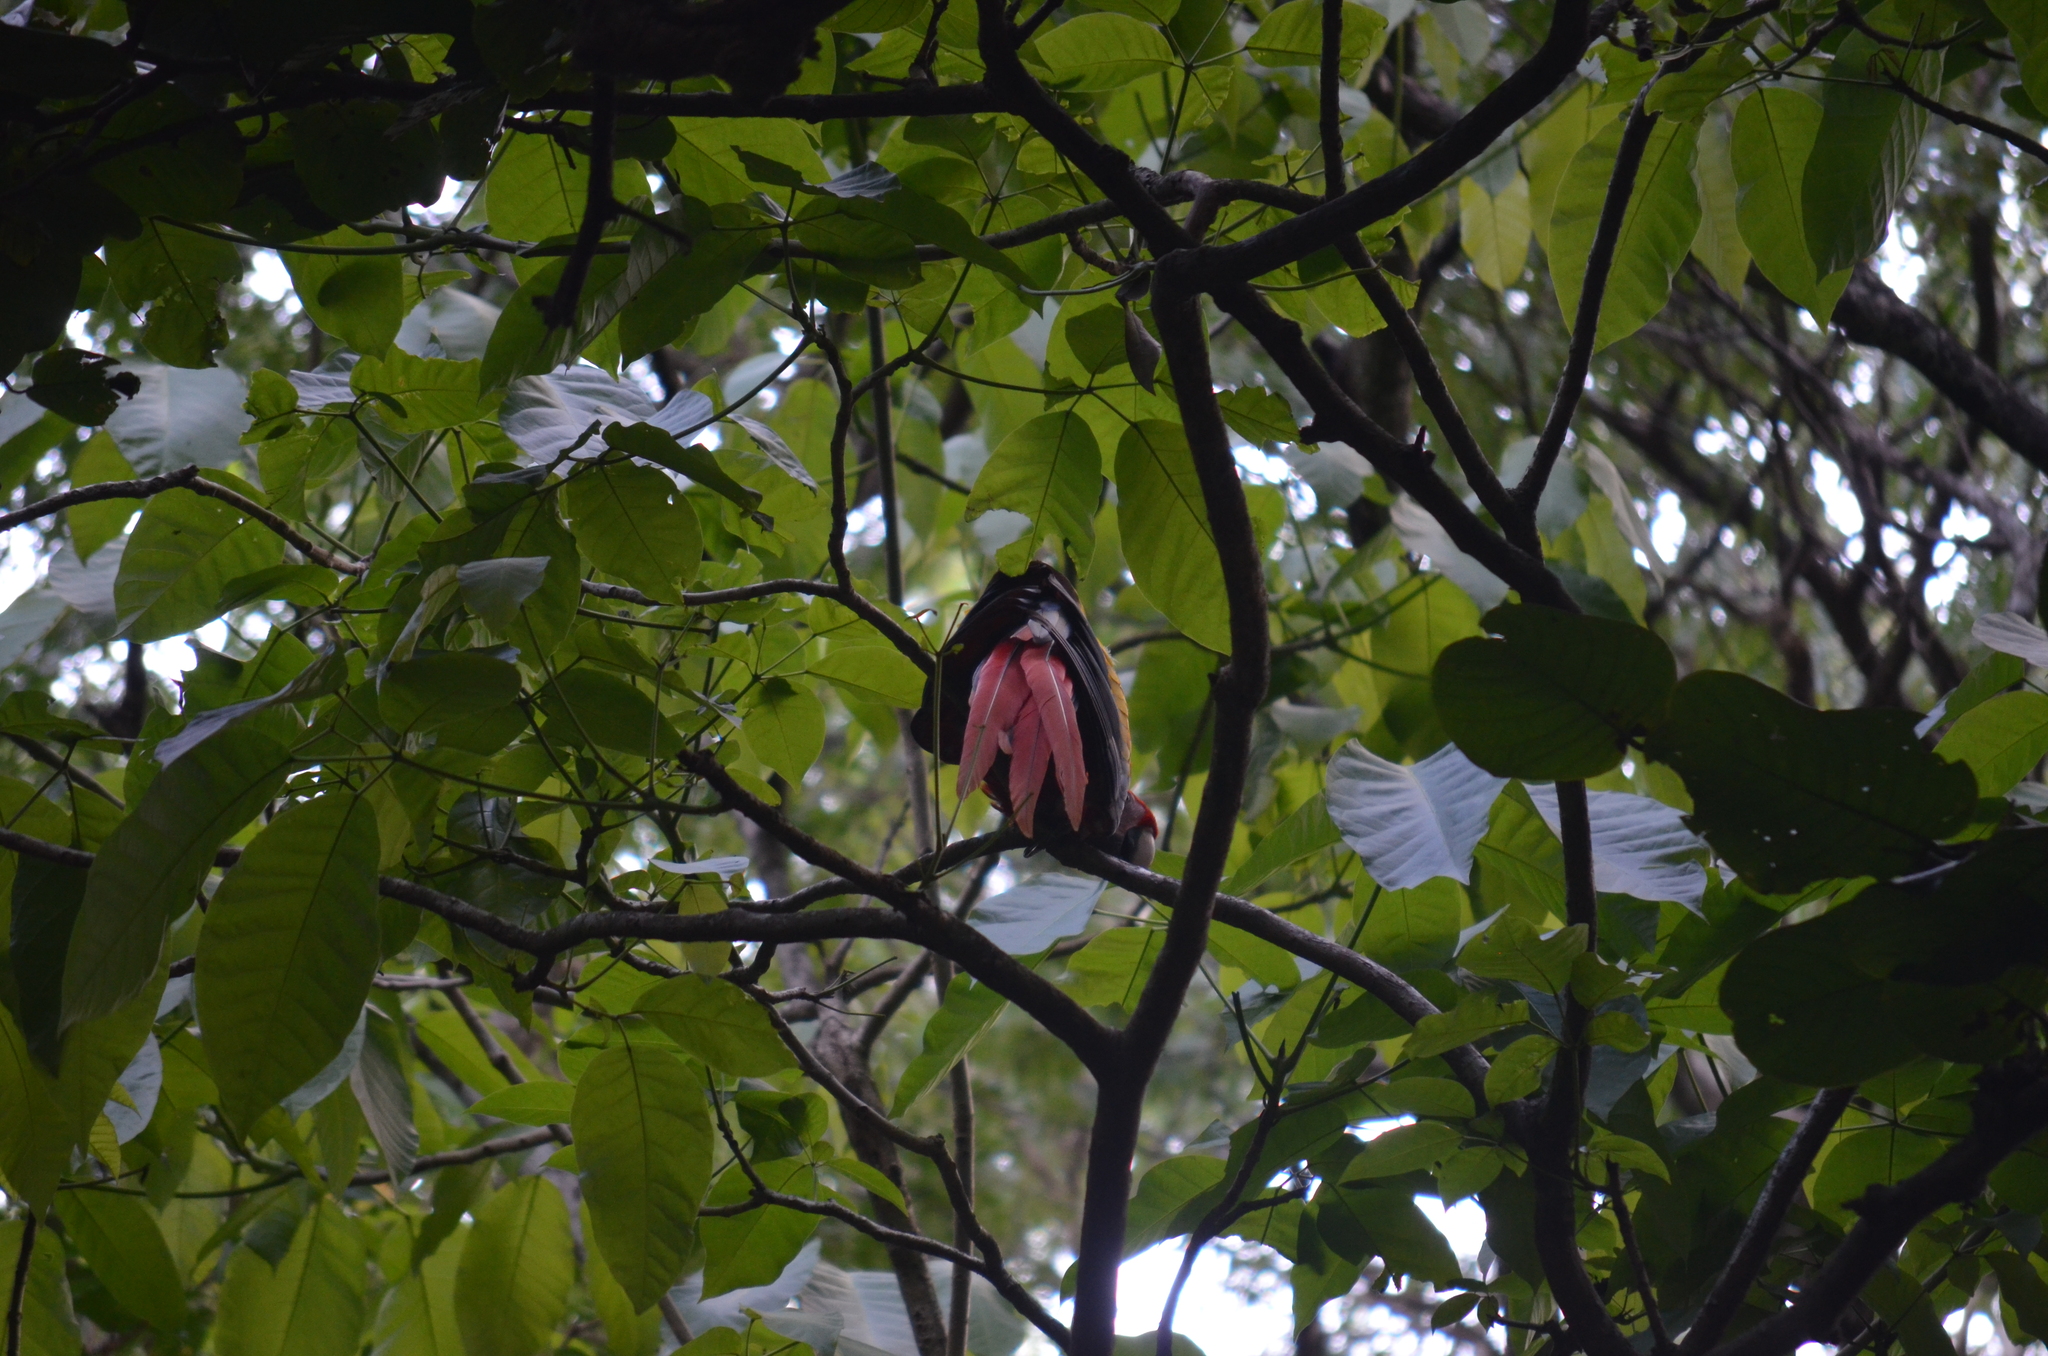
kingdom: Animalia
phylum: Chordata
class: Aves
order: Psittaciformes
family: Psittacidae
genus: Ara
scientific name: Ara macao
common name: Scarlet macaw
